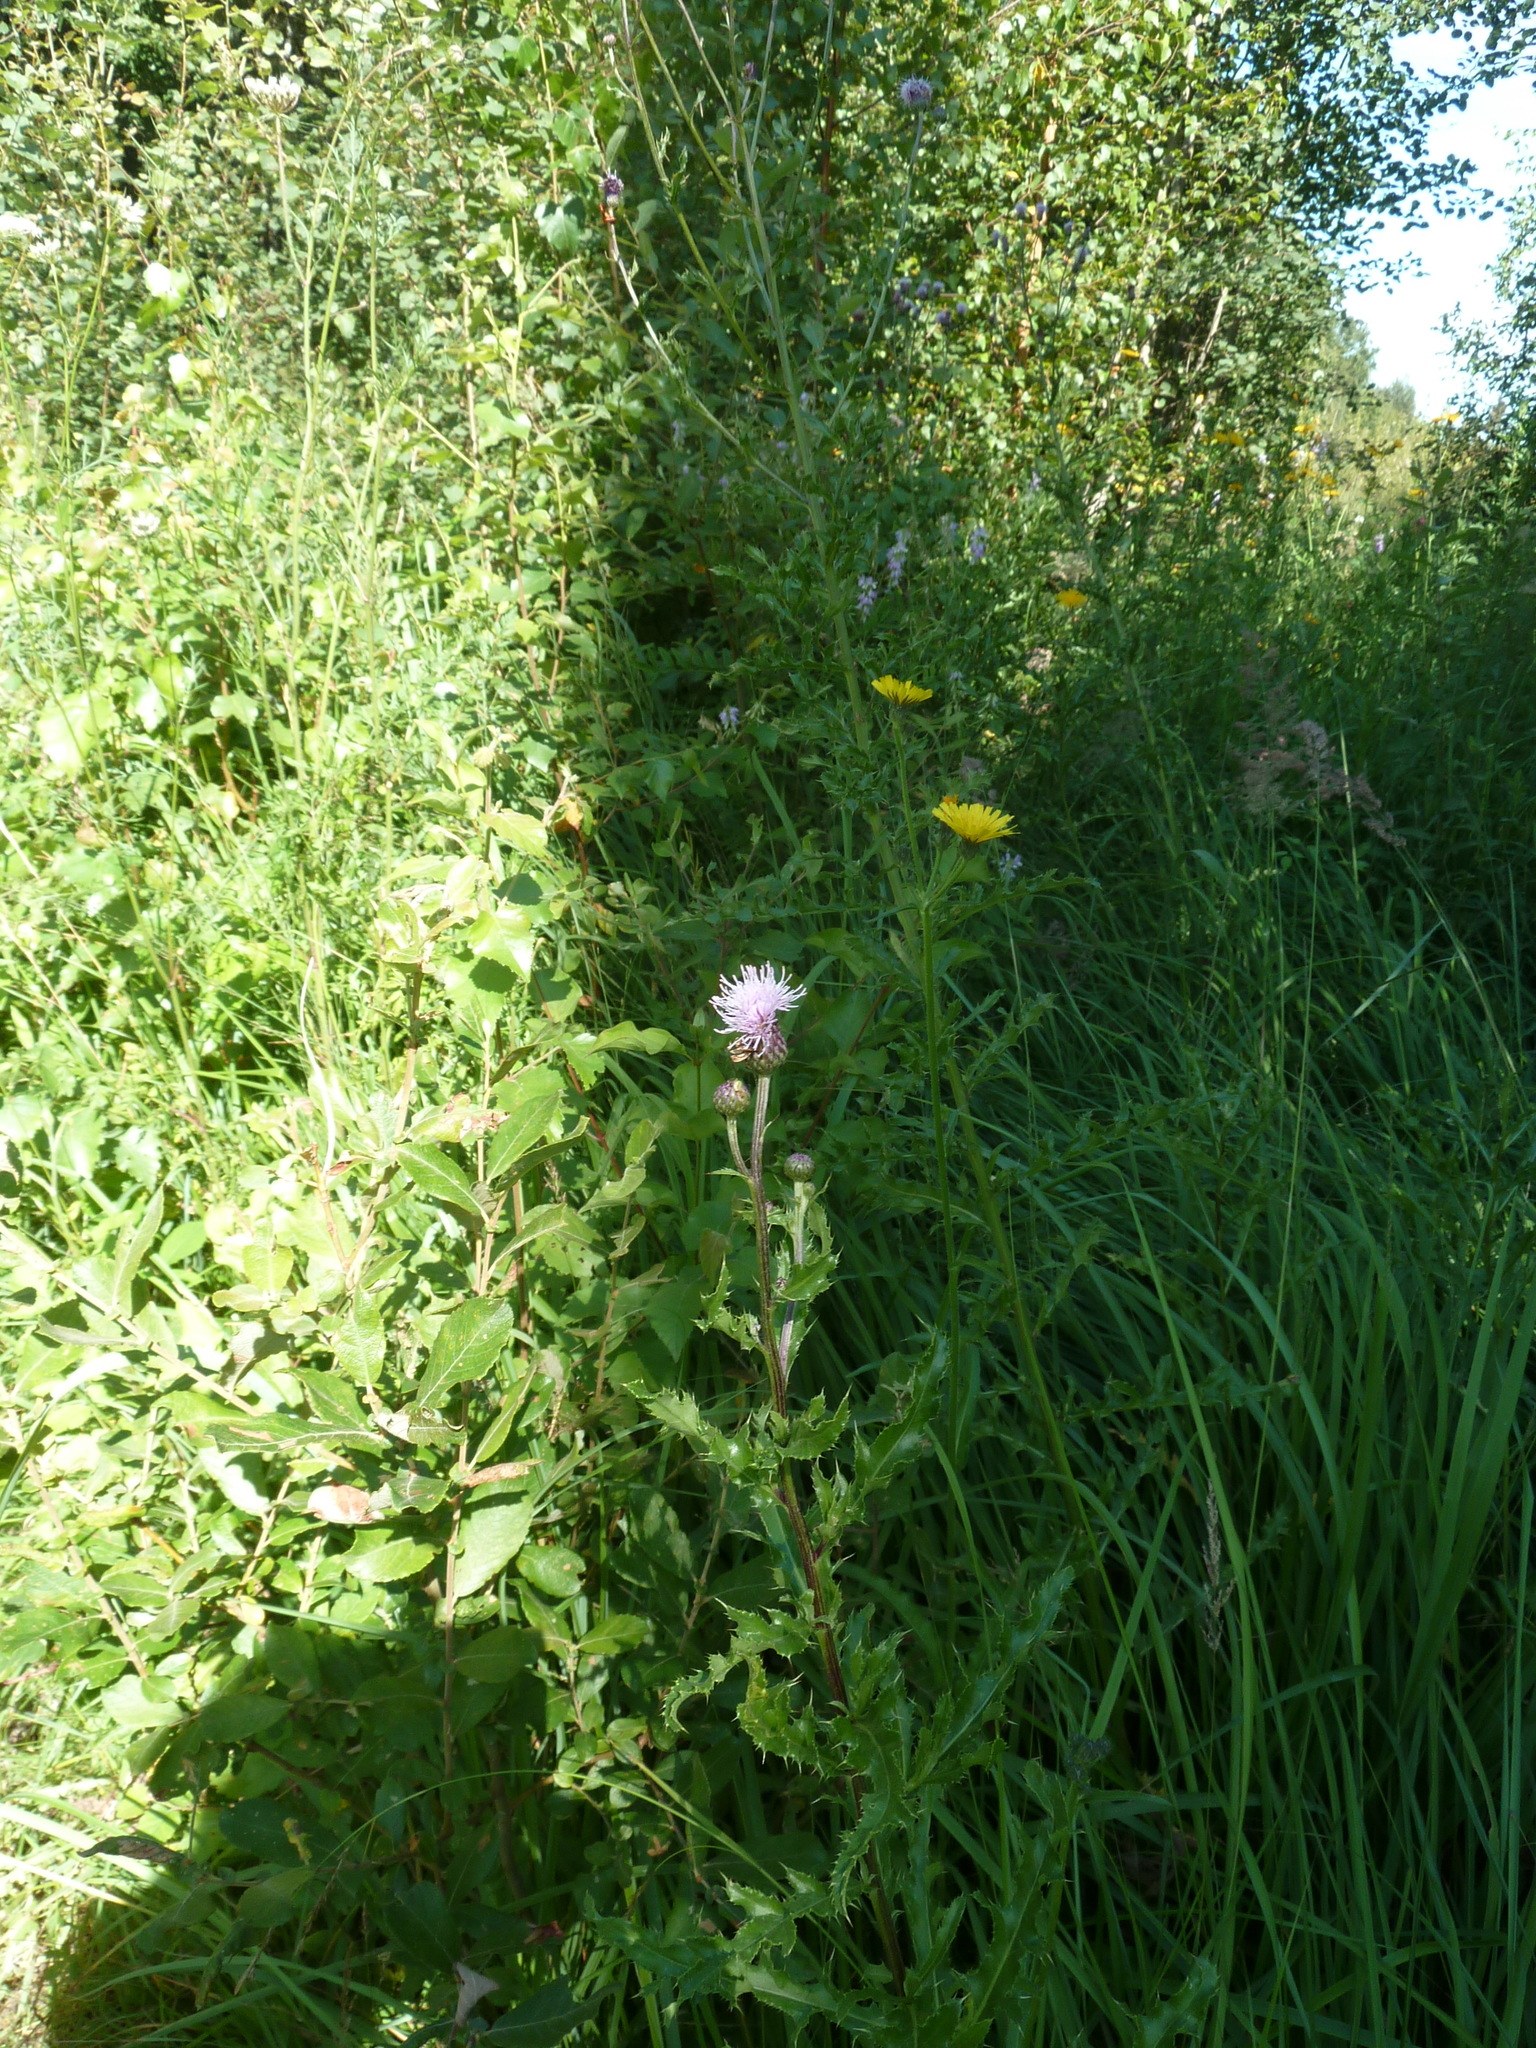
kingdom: Plantae
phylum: Tracheophyta
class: Magnoliopsida
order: Asterales
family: Asteraceae
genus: Cirsium
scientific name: Cirsium arvense
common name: Creeping thistle
